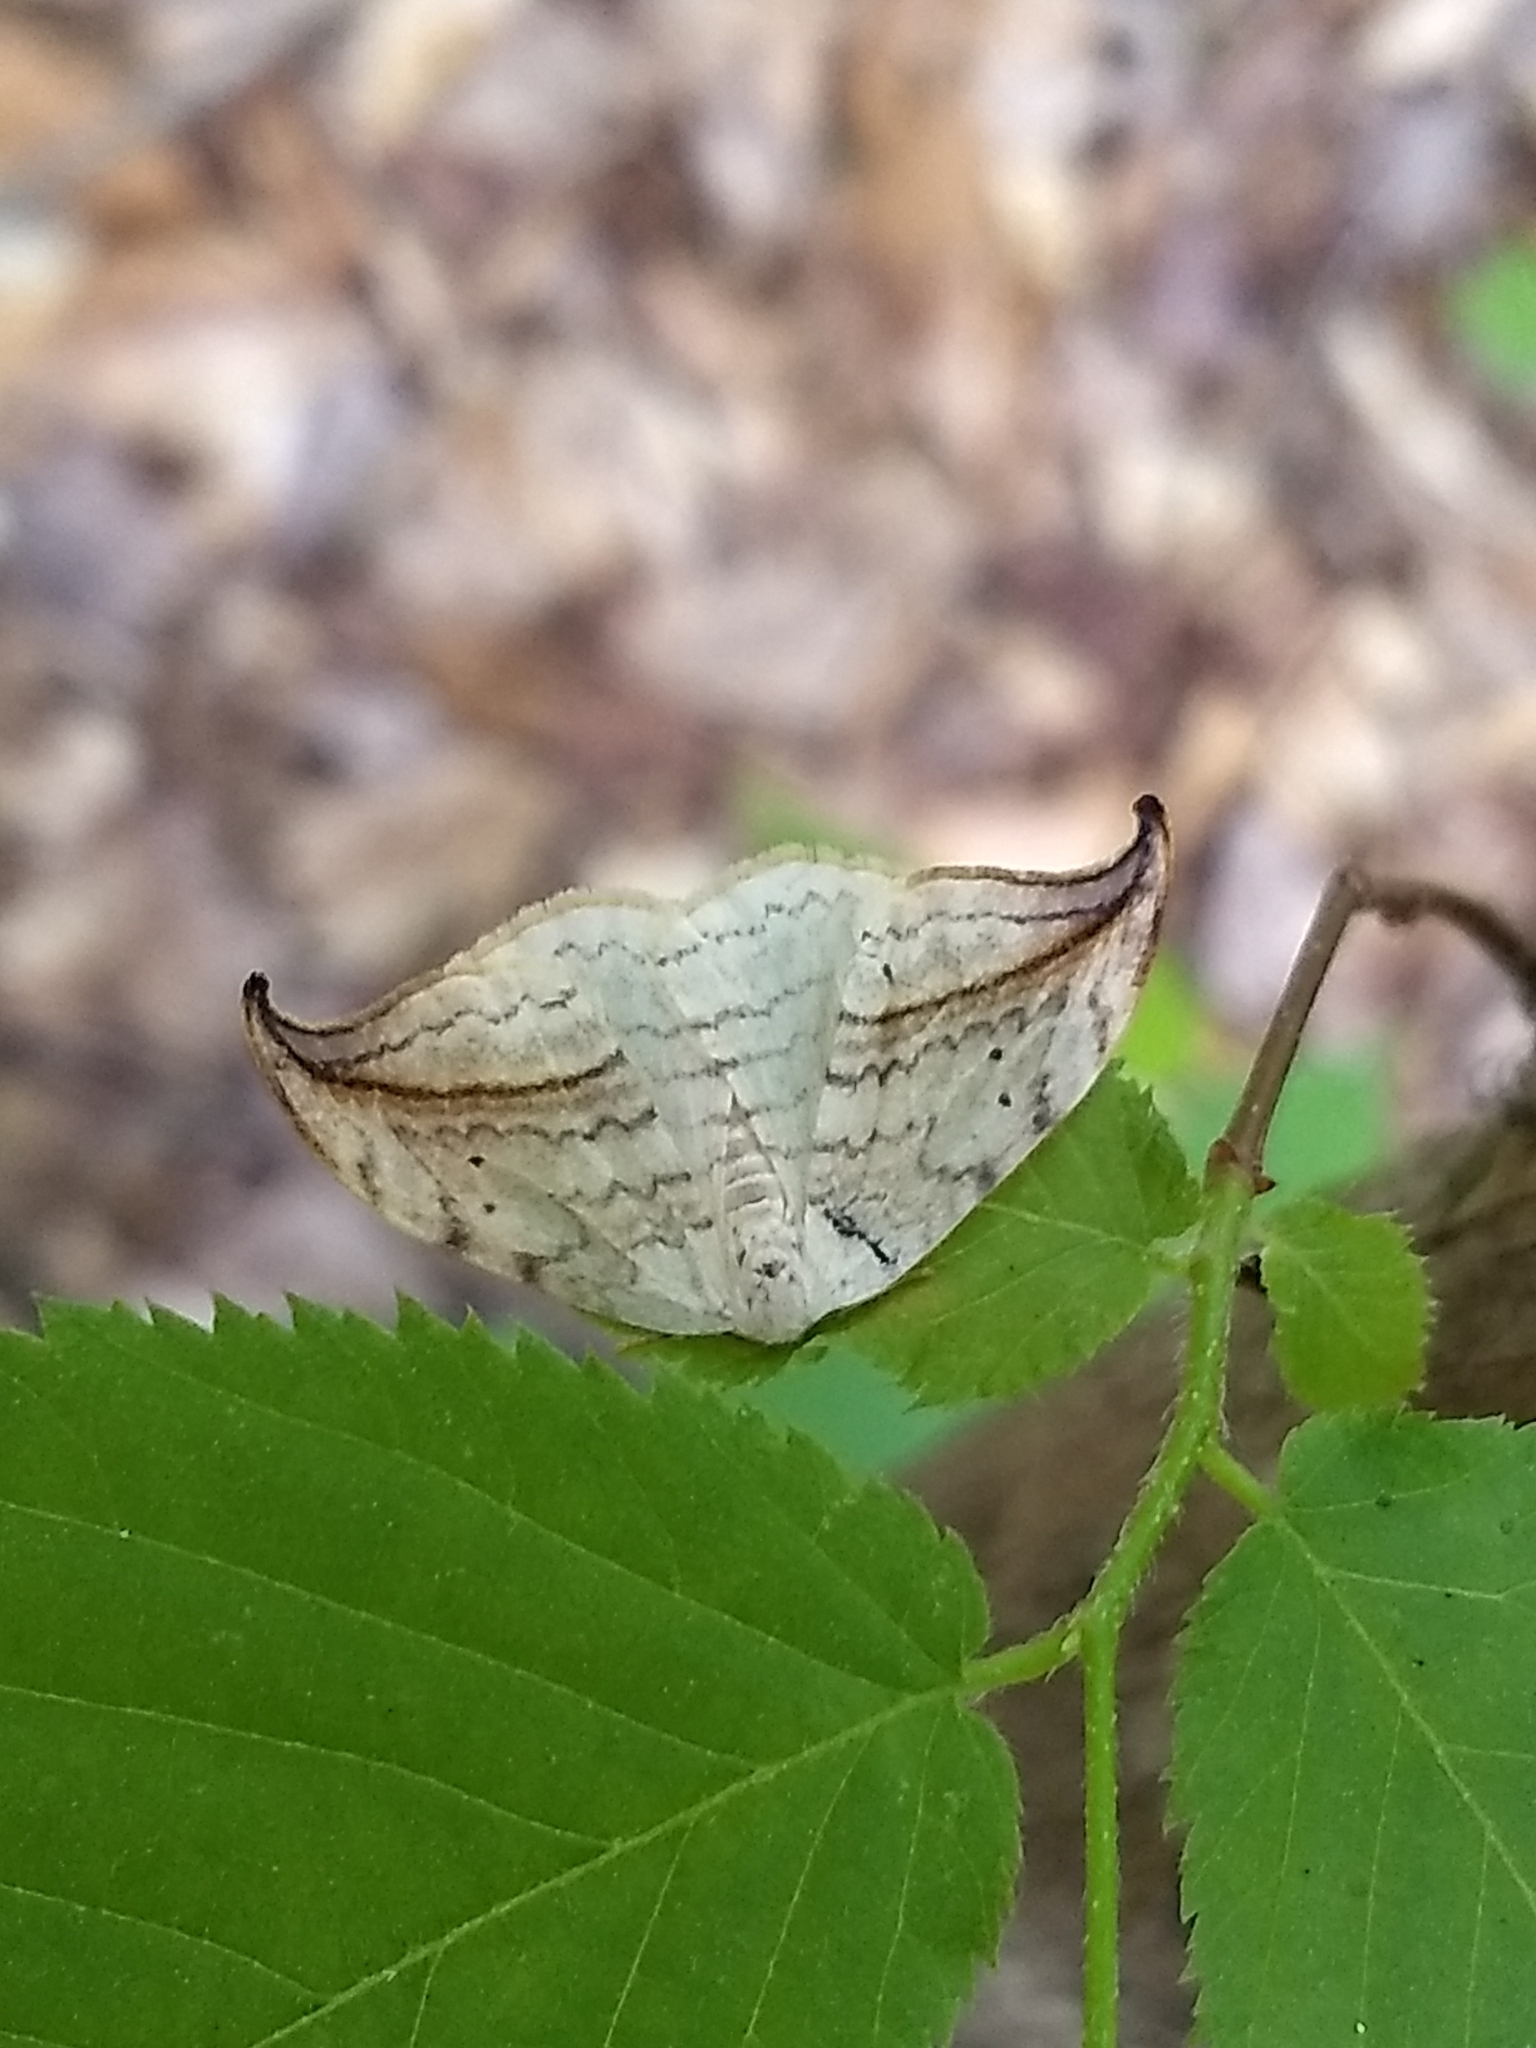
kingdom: Animalia
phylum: Arthropoda
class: Insecta
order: Lepidoptera
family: Drepanidae
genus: Drepana
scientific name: Drepana arcuata
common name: Arched hooktip moth
